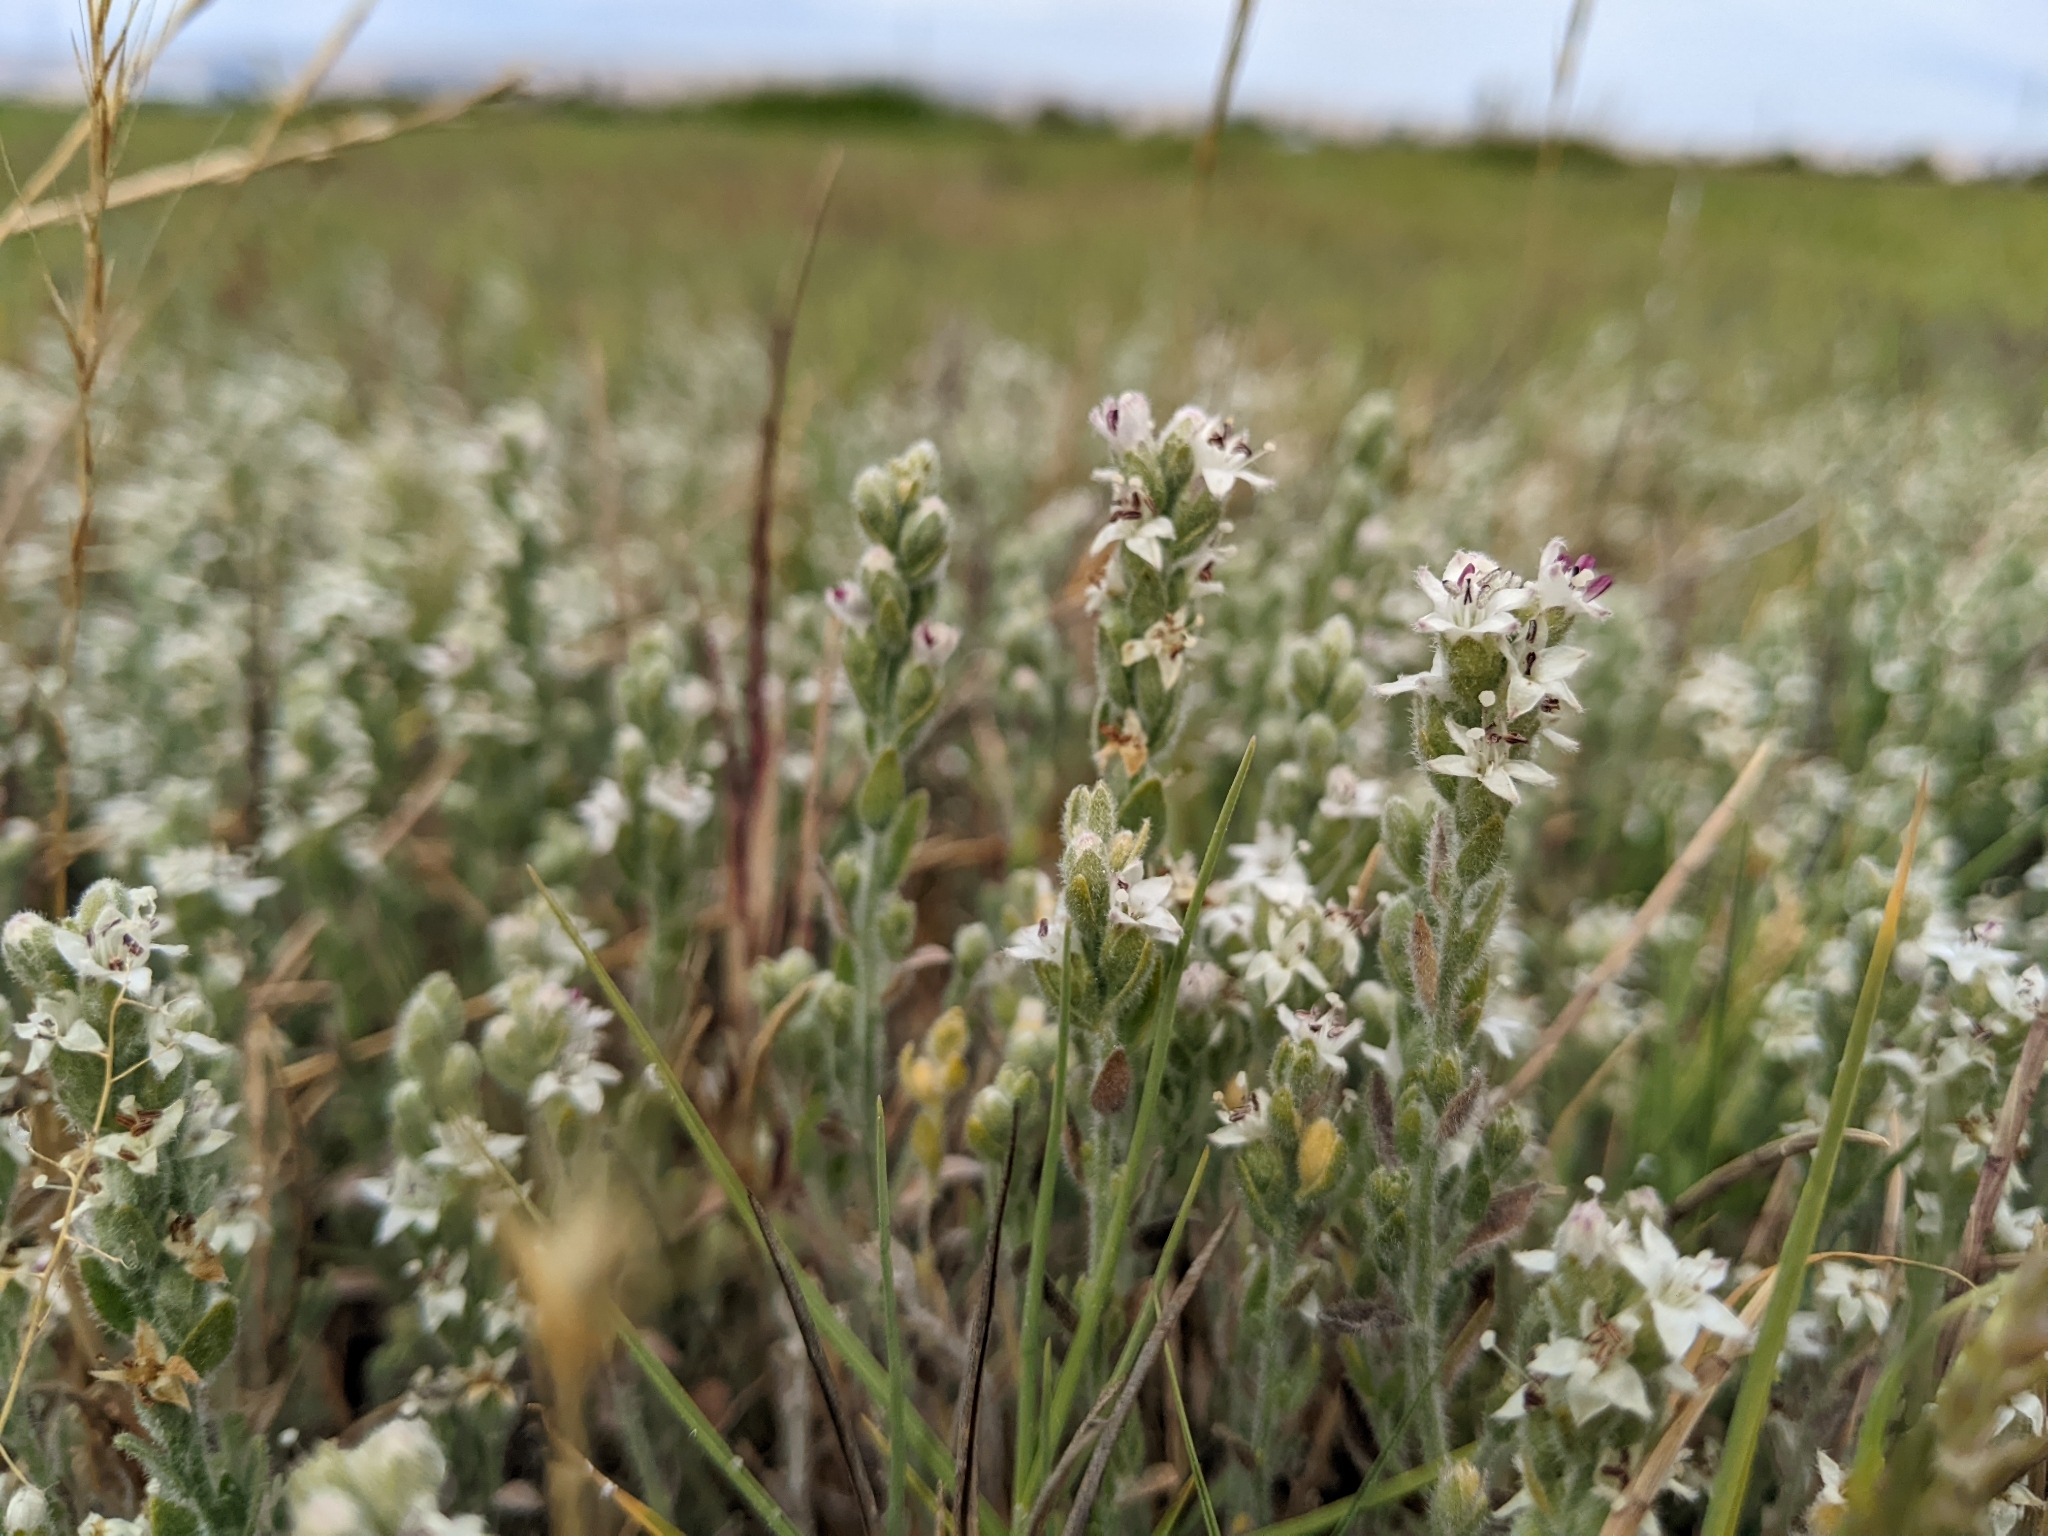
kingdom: Plantae
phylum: Tracheophyta
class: Magnoliopsida
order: Solanales
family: Convolvulaceae
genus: Cressa
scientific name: Cressa truxillensis
